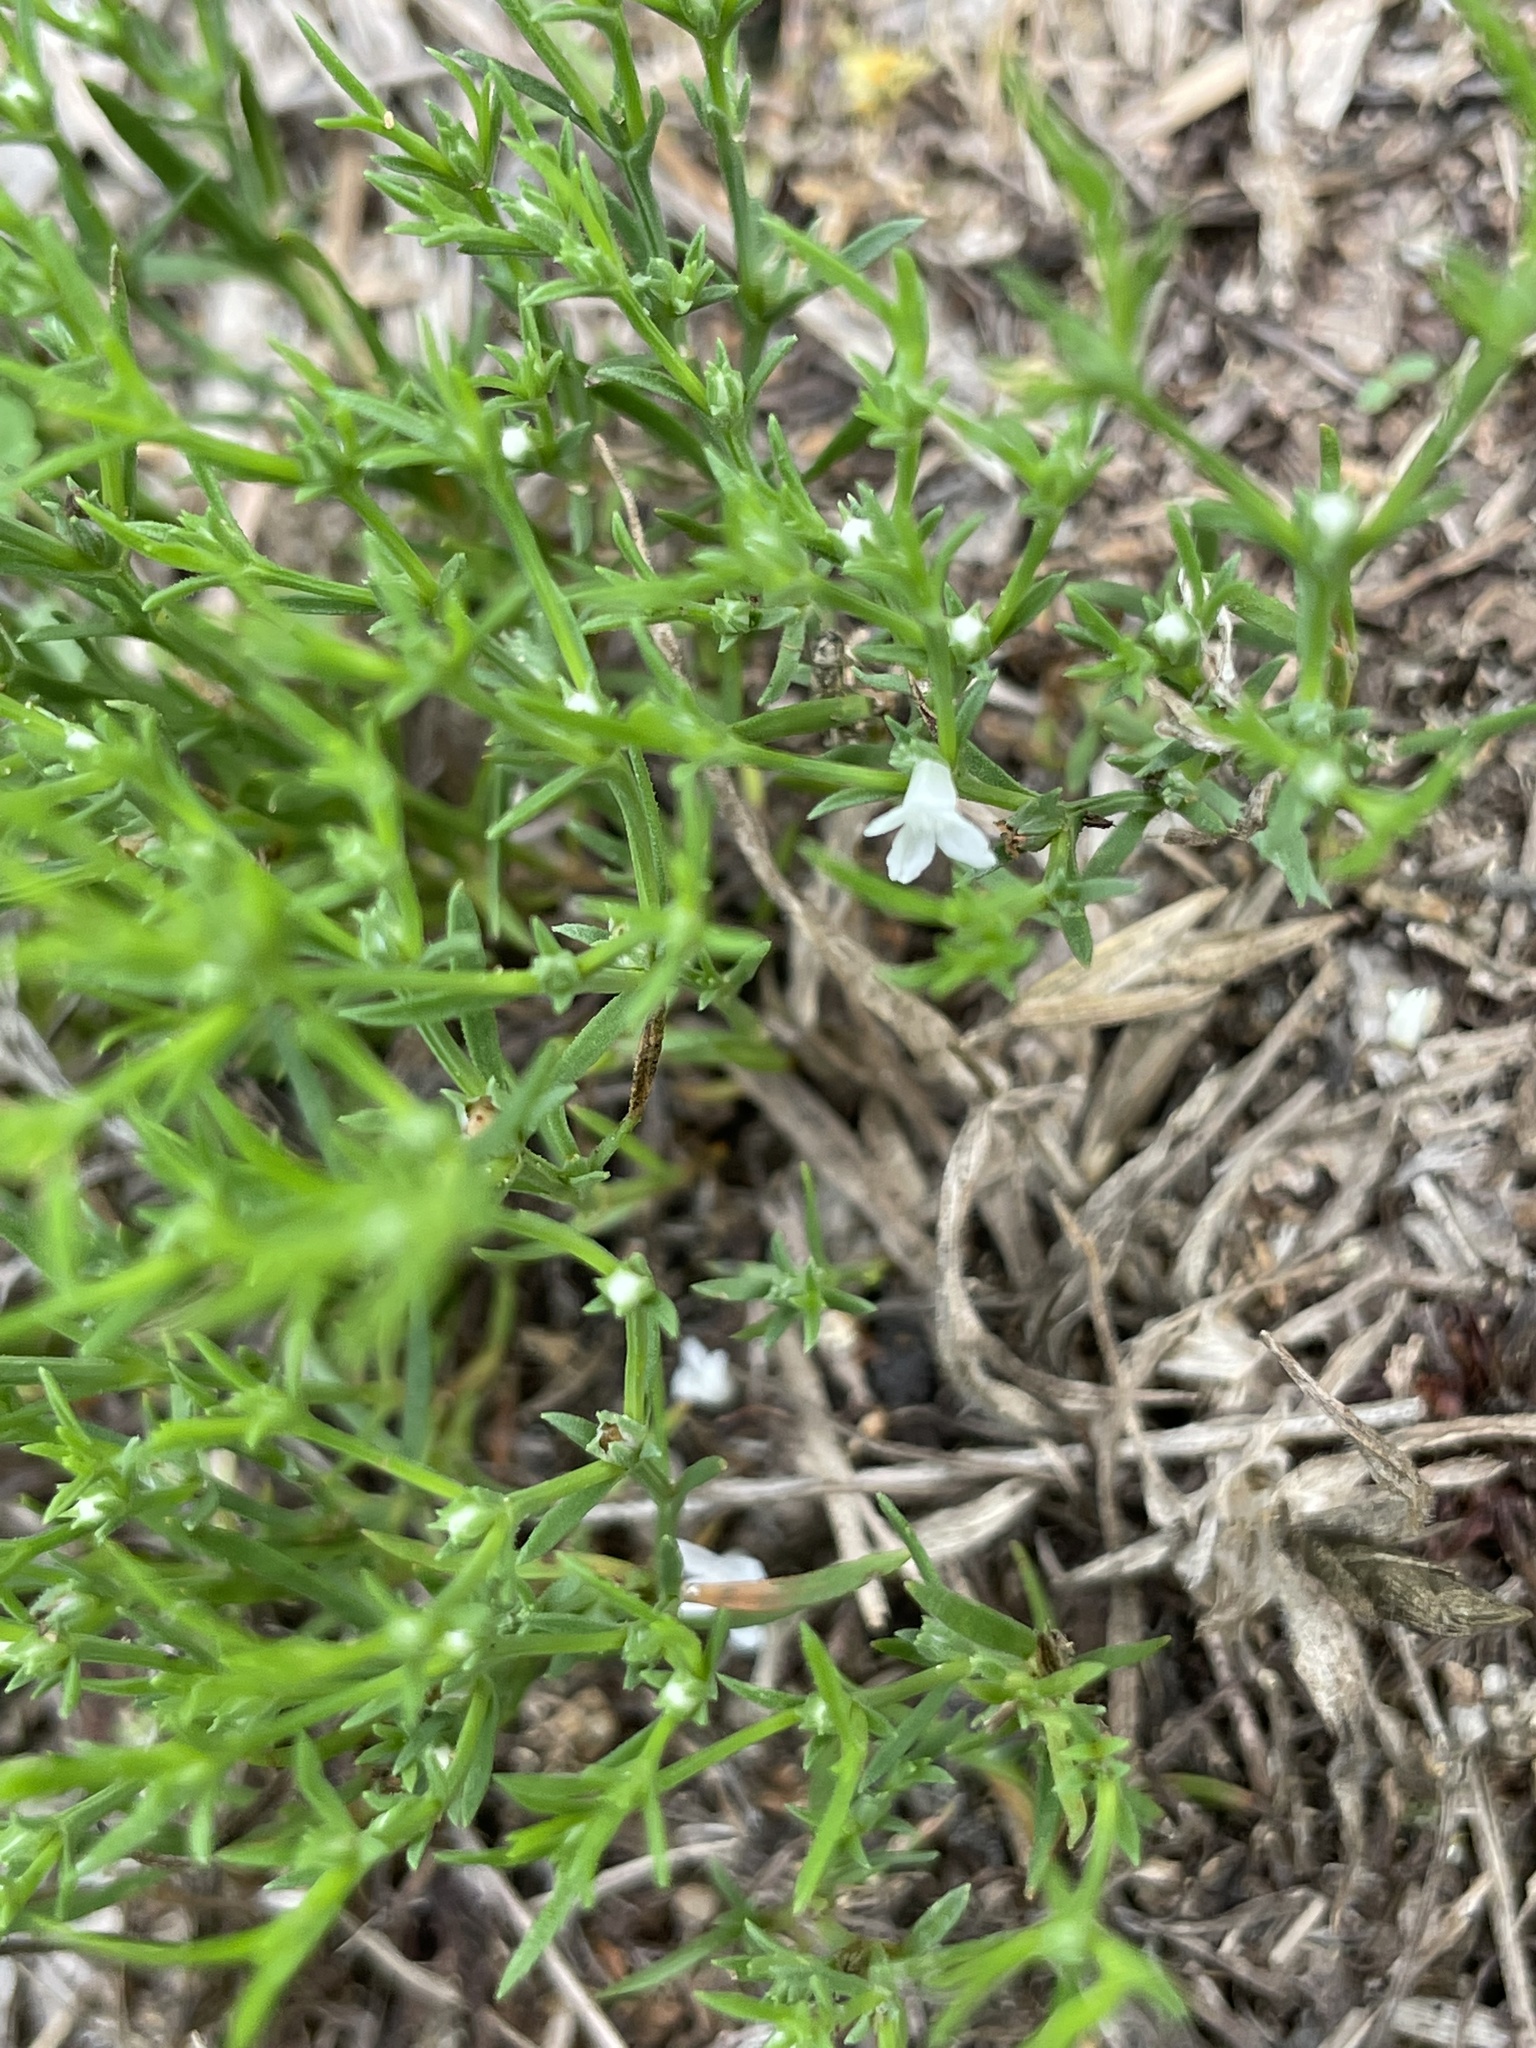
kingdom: Plantae
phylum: Tracheophyta
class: Magnoliopsida
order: Lamiales
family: Tetrachondraceae
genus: Polypremum
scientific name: Polypremum procumbens
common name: Juniper-leaf
